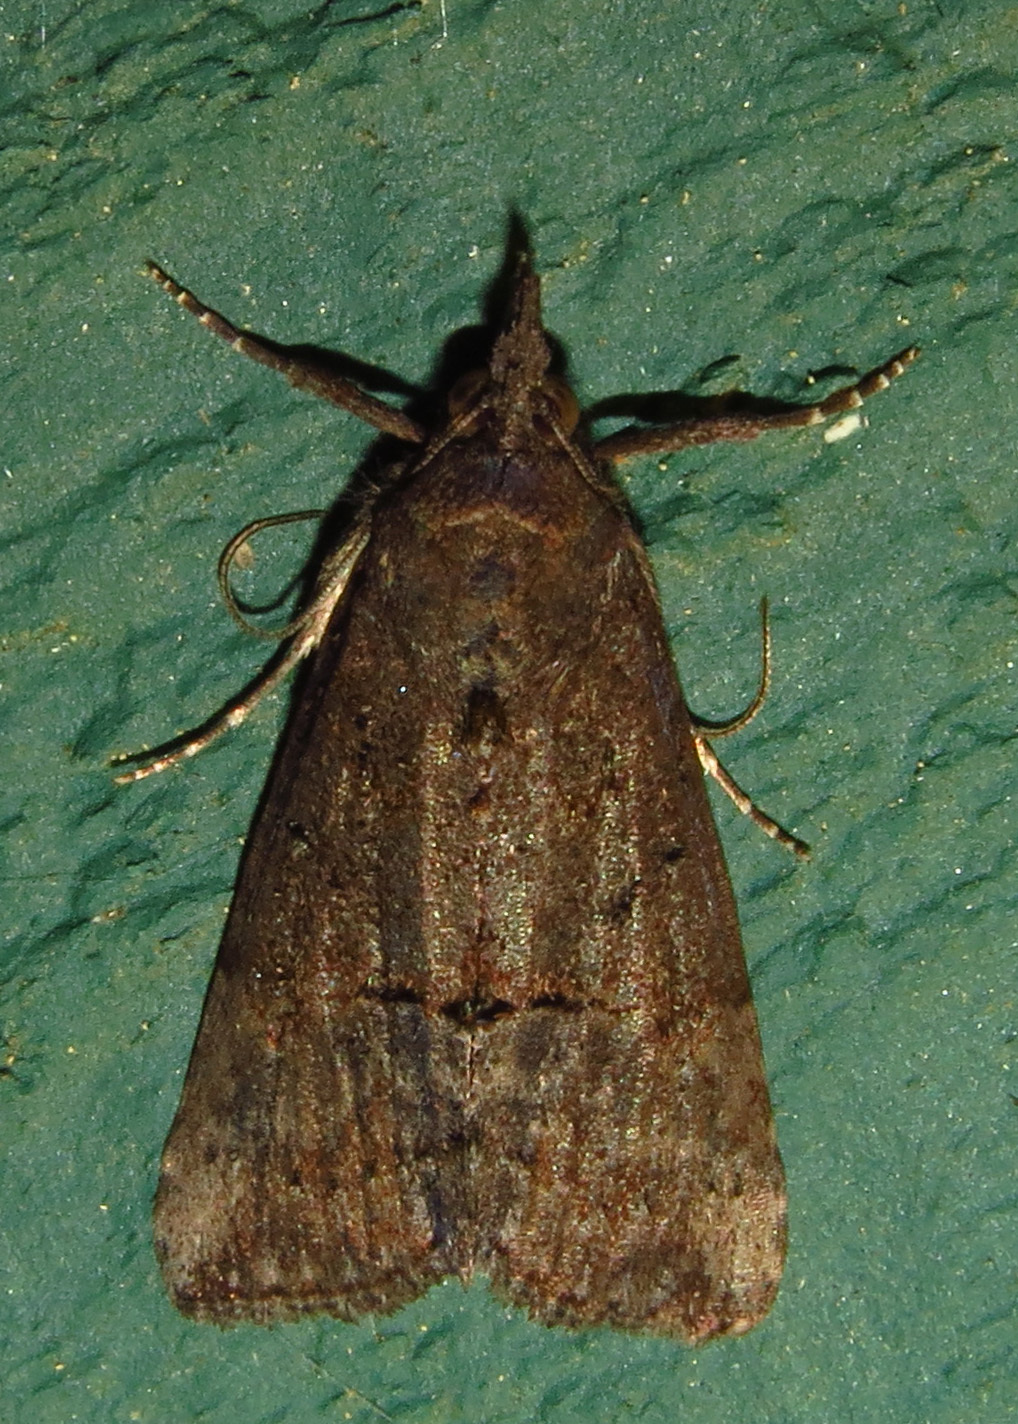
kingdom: Animalia
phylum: Arthropoda
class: Insecta
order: Lepidoptera
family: Erebidae
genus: Hypena
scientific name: Hypena scabra
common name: Green cloverworm
